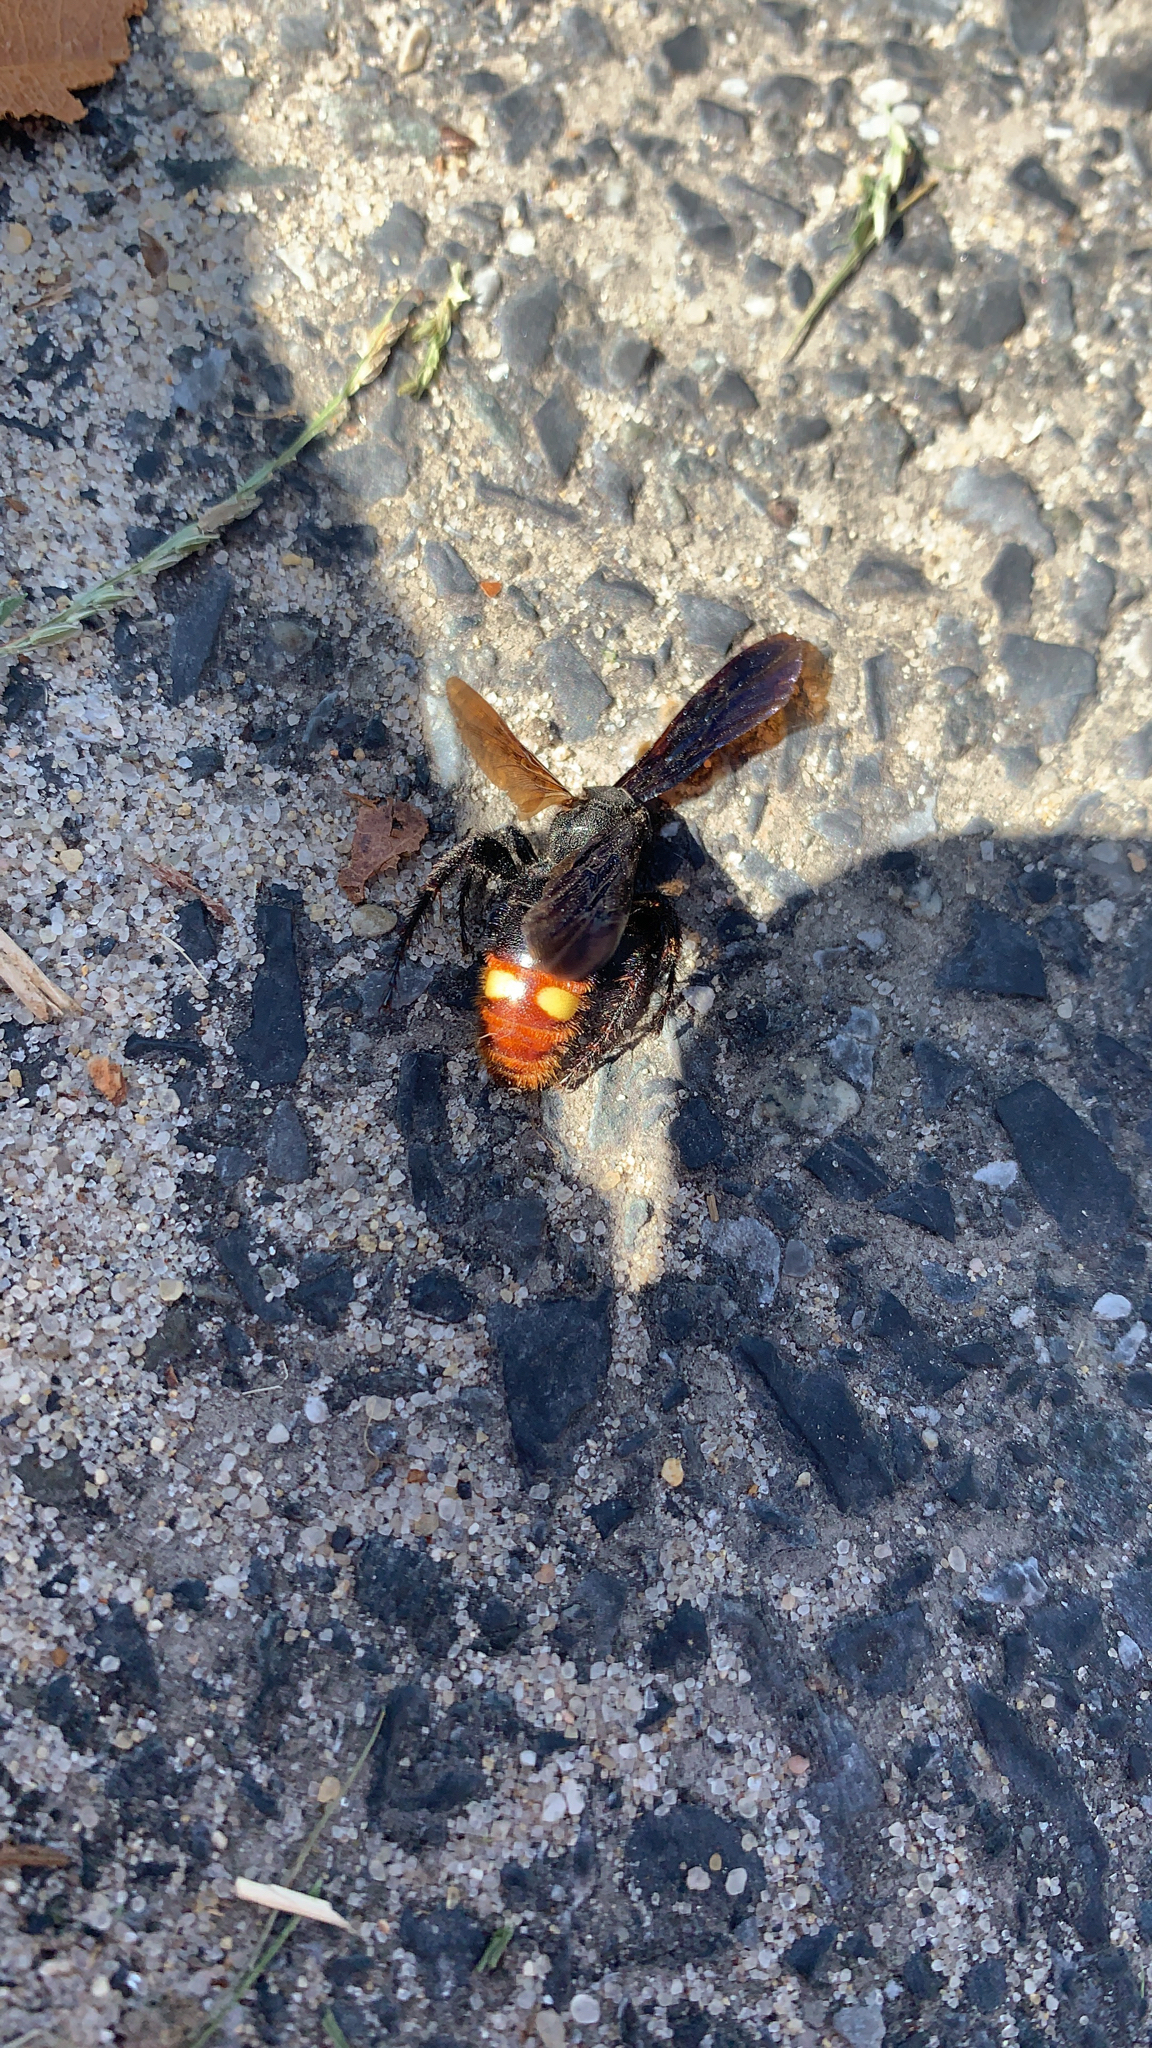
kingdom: Animalia
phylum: Arthropoda
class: Insecta
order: Hymenoptera
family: Scoliidae
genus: Scolia
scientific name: Scolia dubia
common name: Blue-winged scoliid wasp
